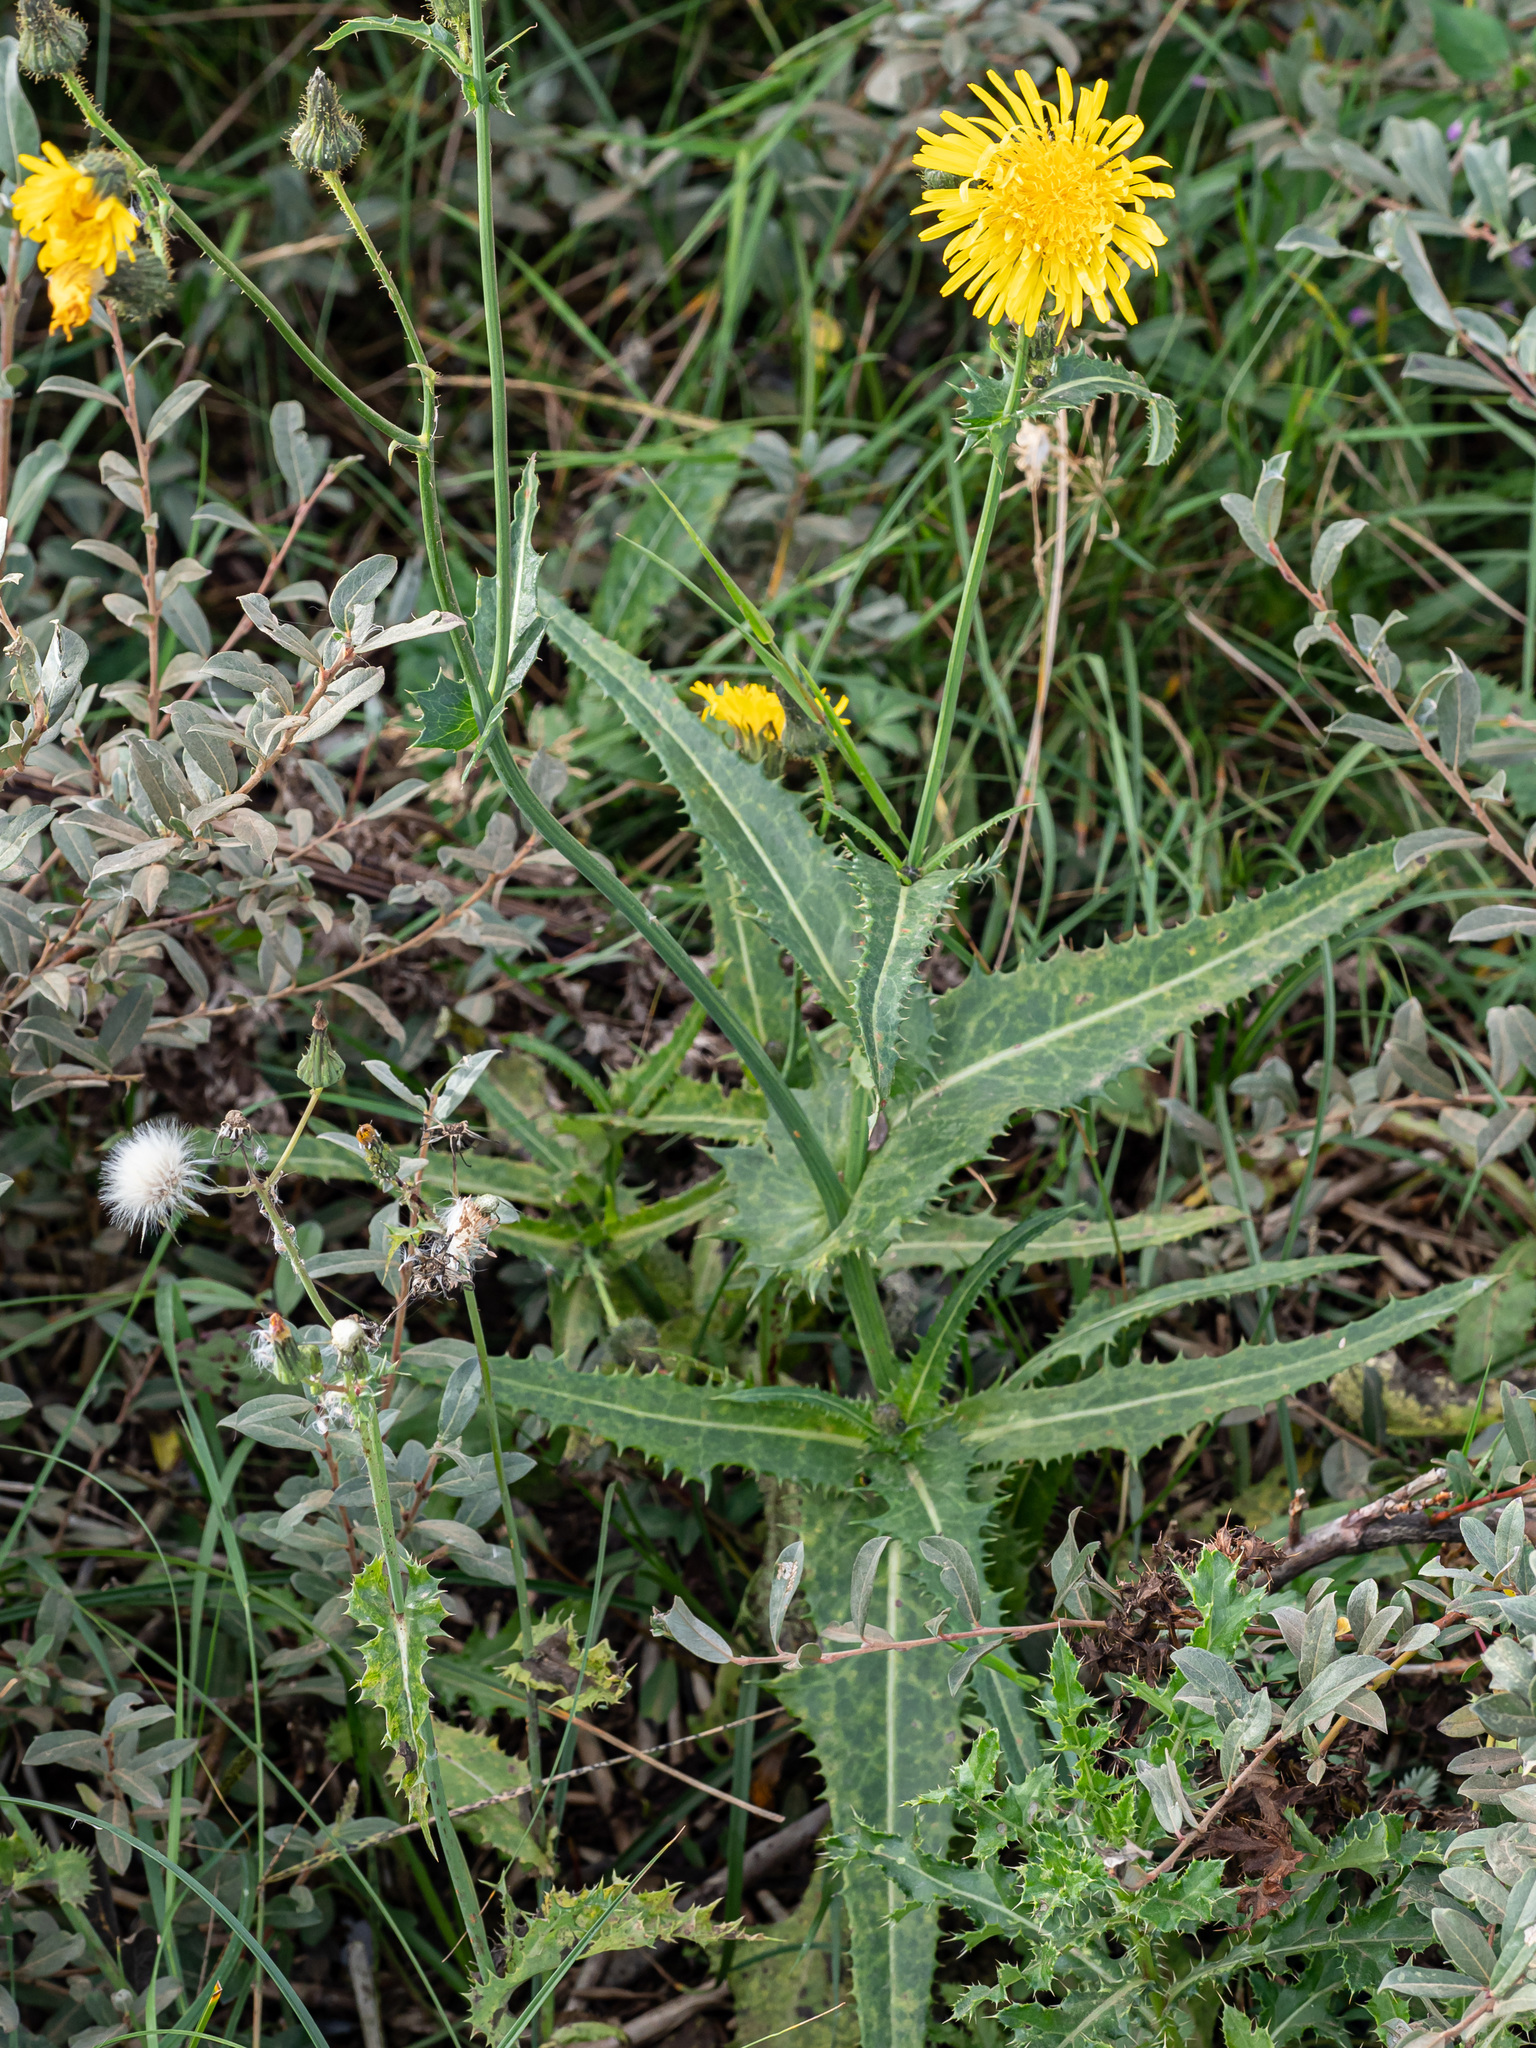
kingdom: Plantae
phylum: Tracheophyta
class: Magnoliopsida
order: Asterales
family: Asteraceae
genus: Sonchus
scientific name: Sonchus asper
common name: Prickly sow-thistle
